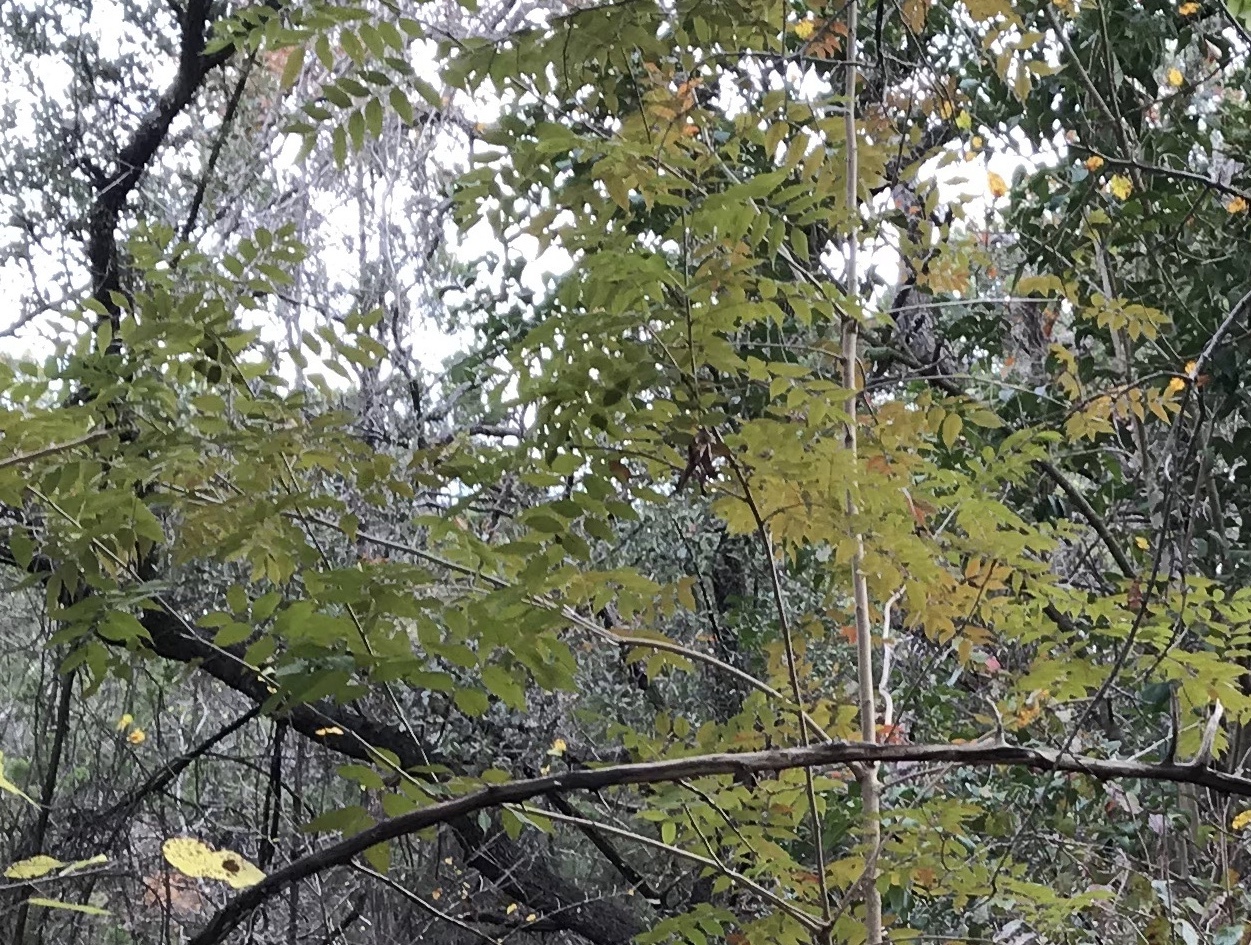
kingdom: Plantae
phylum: Tracheophyta
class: Magnoliopsida
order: Sapindales
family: Anacardiaceae
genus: Pistacia
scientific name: Pistacia chinensis
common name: Chinese pistache
